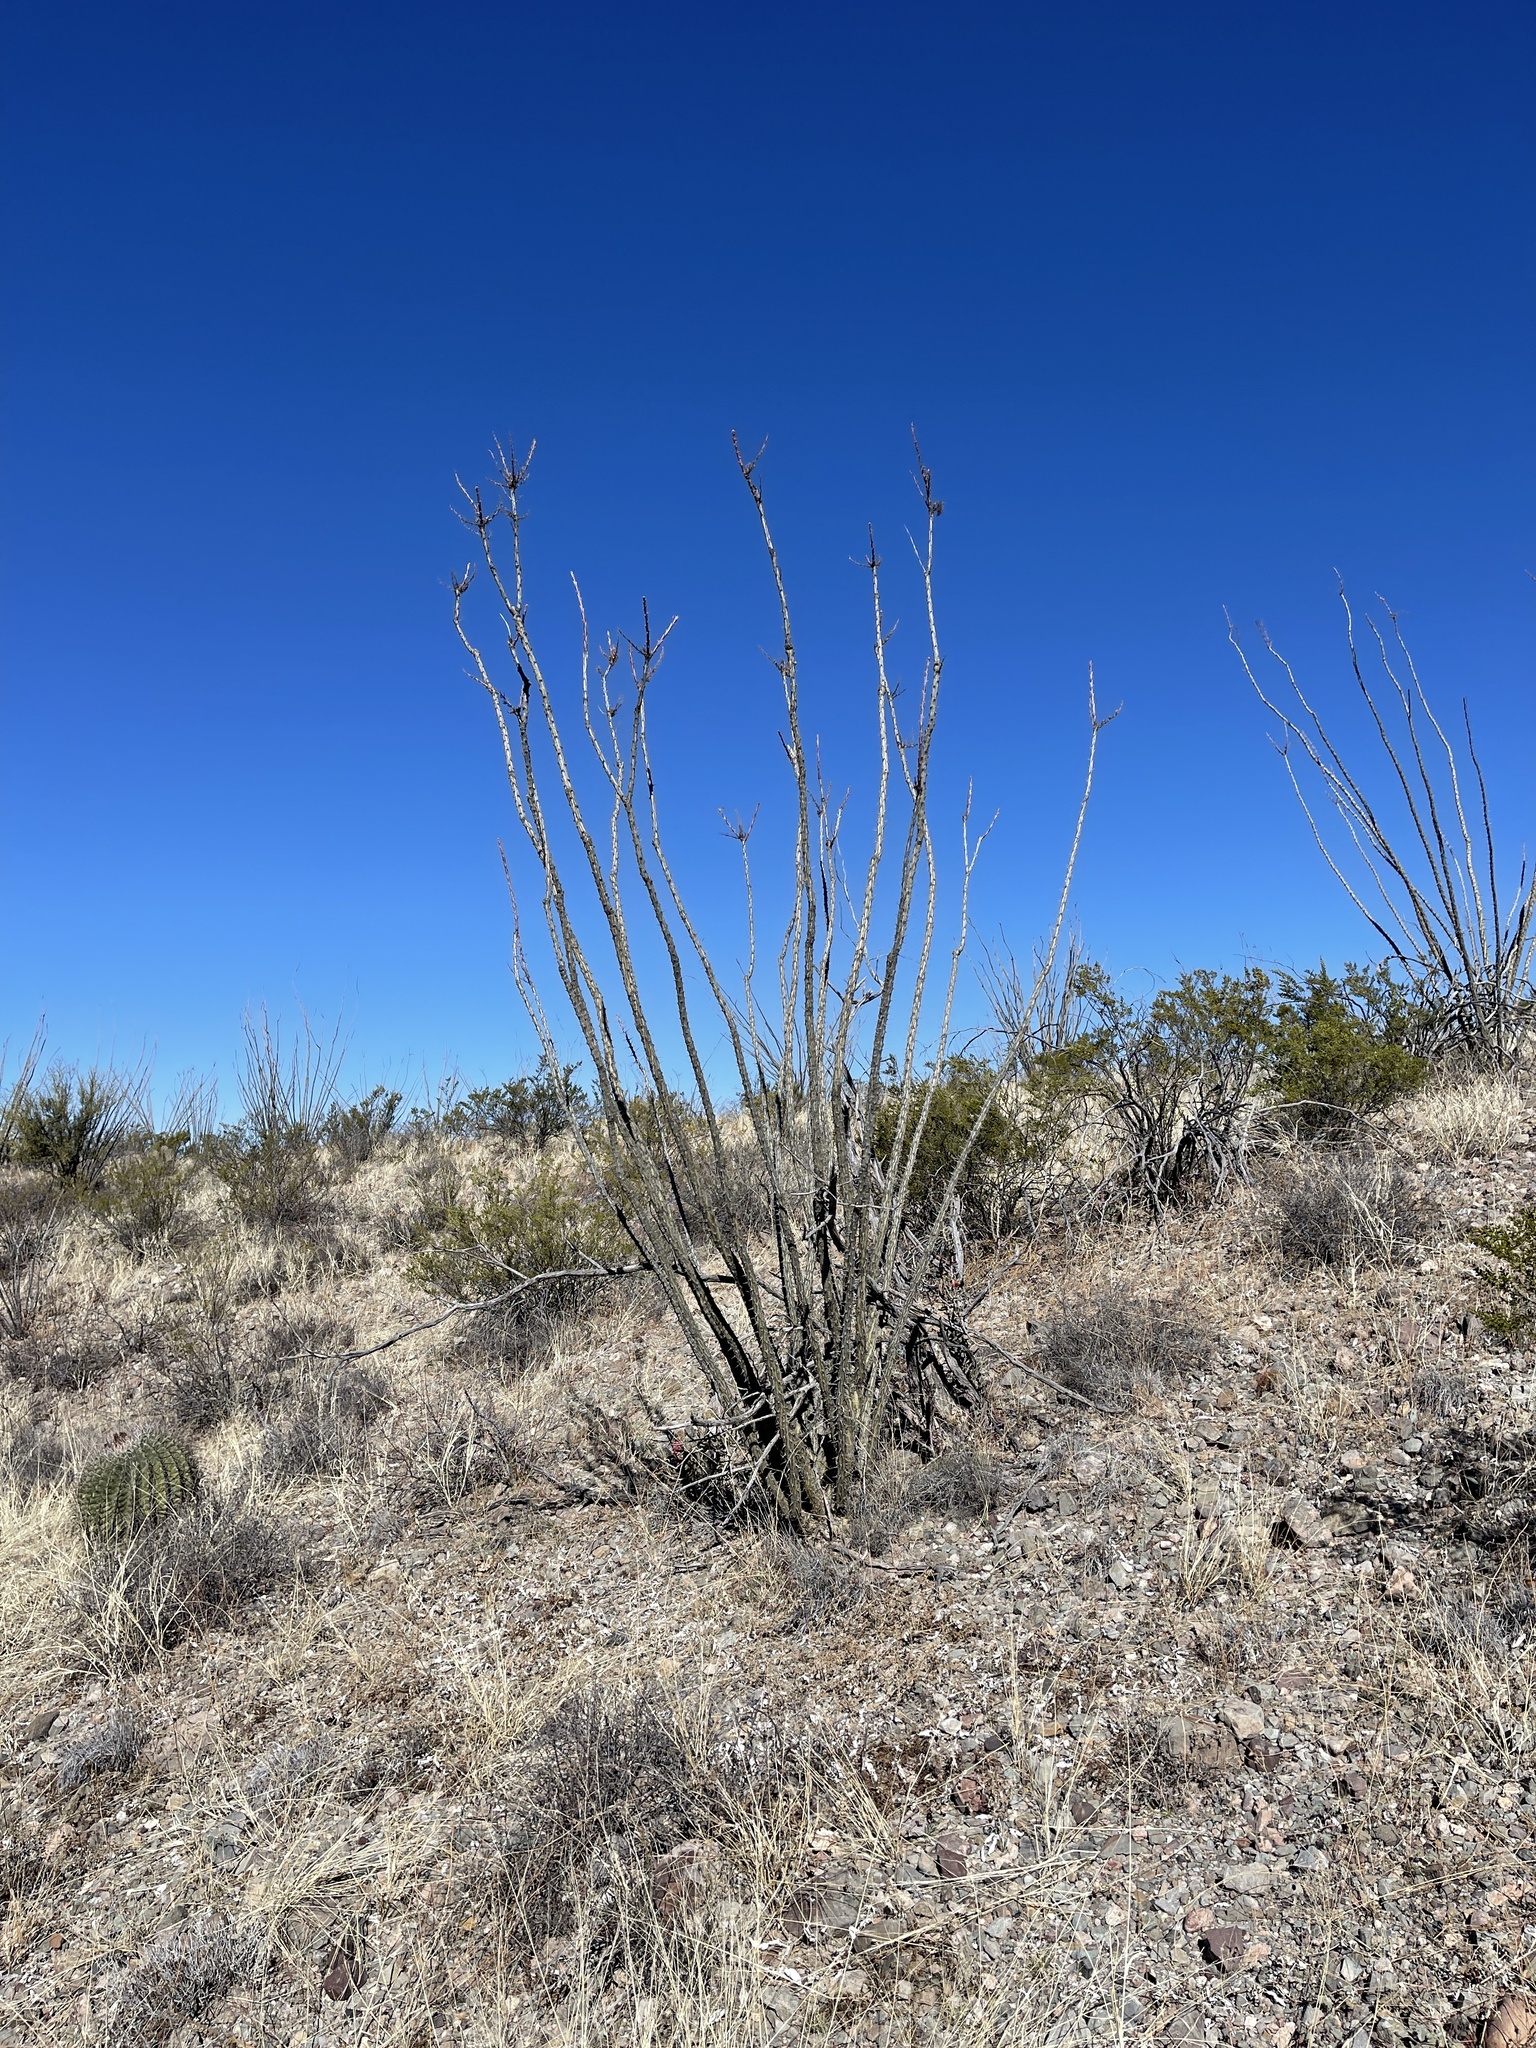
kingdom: Plantae
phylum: Tracheophyta
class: Magnoliopsida
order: Ericales
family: Fouquieriaceae
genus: Fouquieria
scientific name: Fouquieria splendens
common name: Vine-cactus
